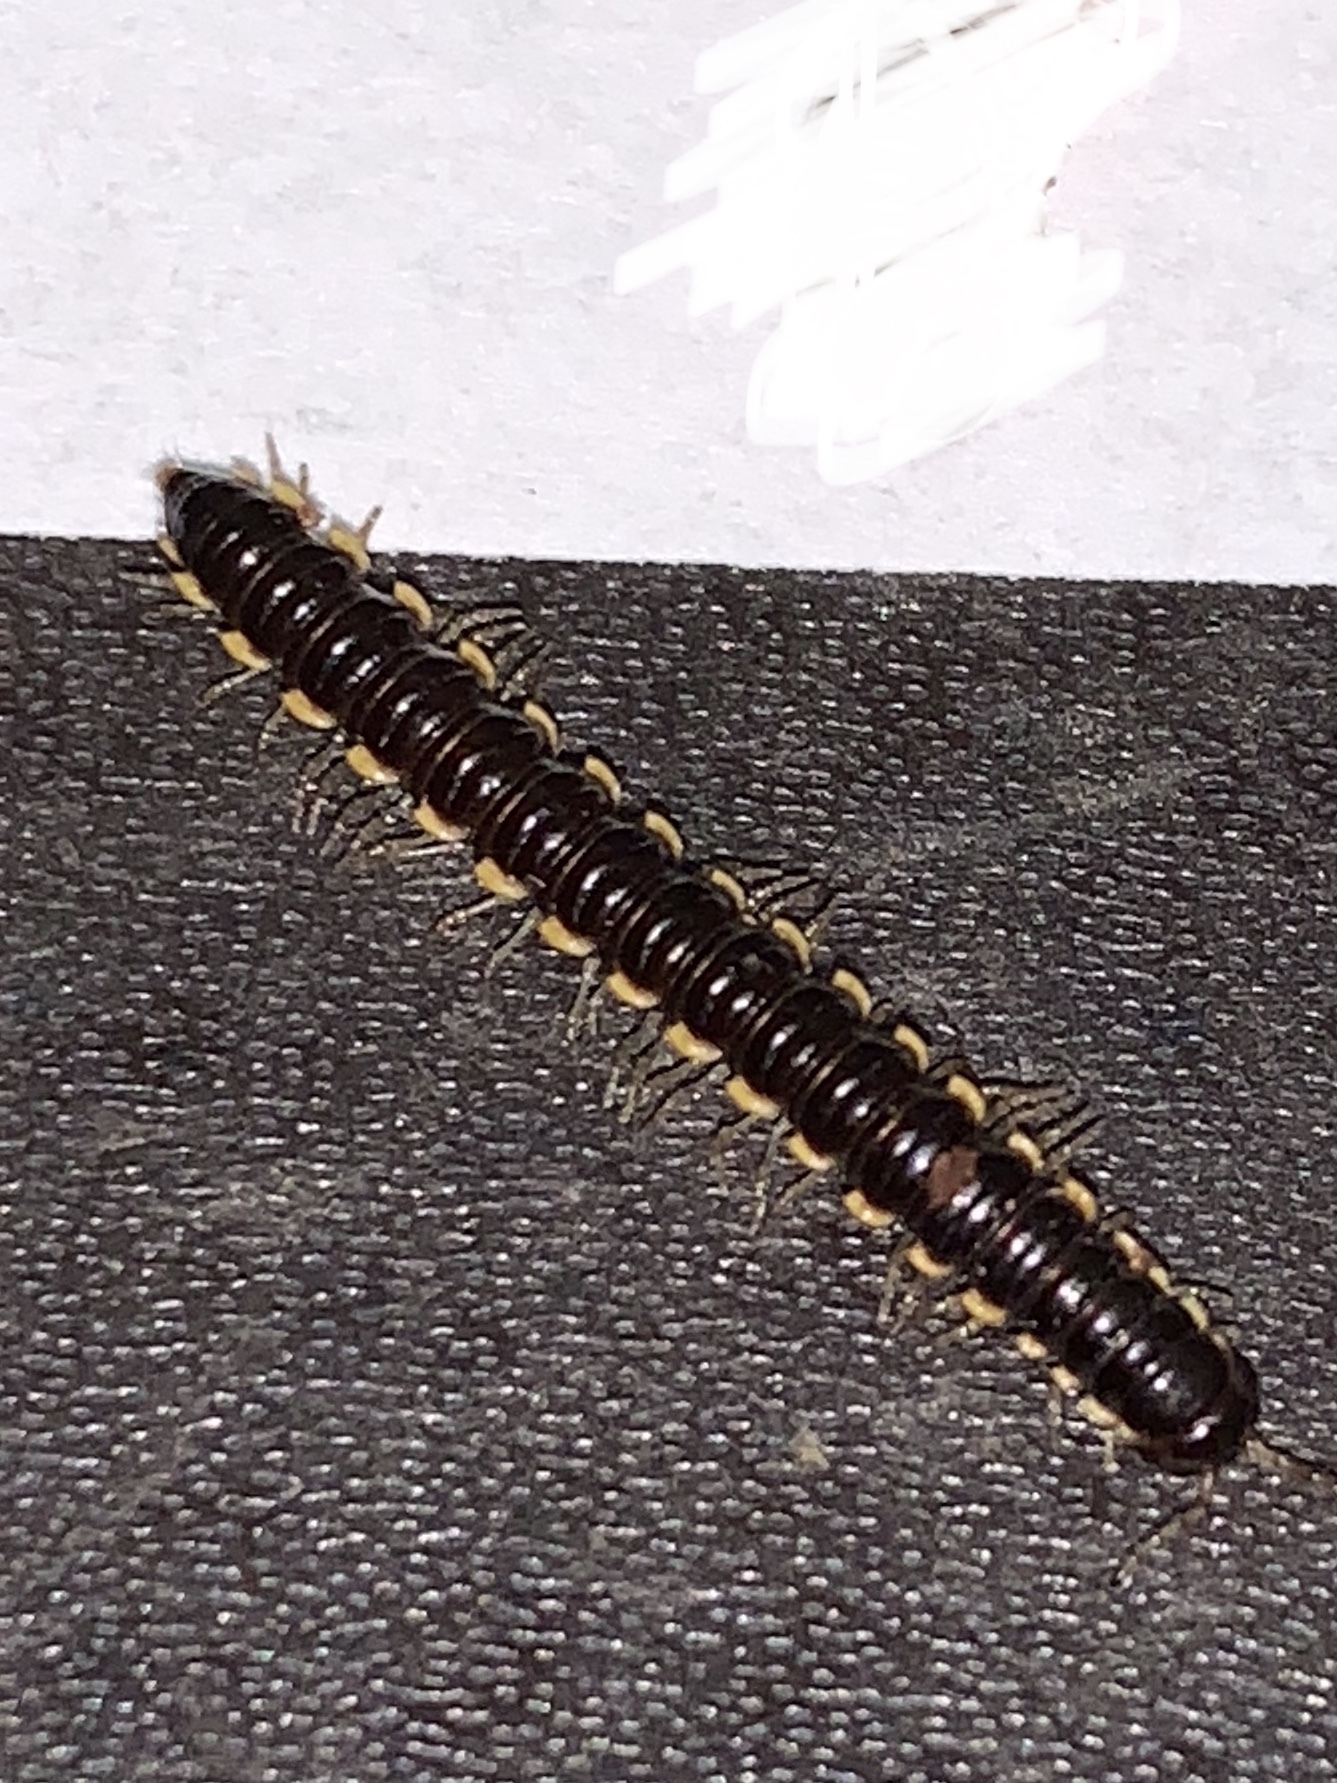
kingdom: Animalia
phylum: Arthropoda
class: Diplopoda
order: Polydesmida
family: Paradoxosomatidae
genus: Oxidus
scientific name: Oxidus gracilis
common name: Greenhouse millipede
